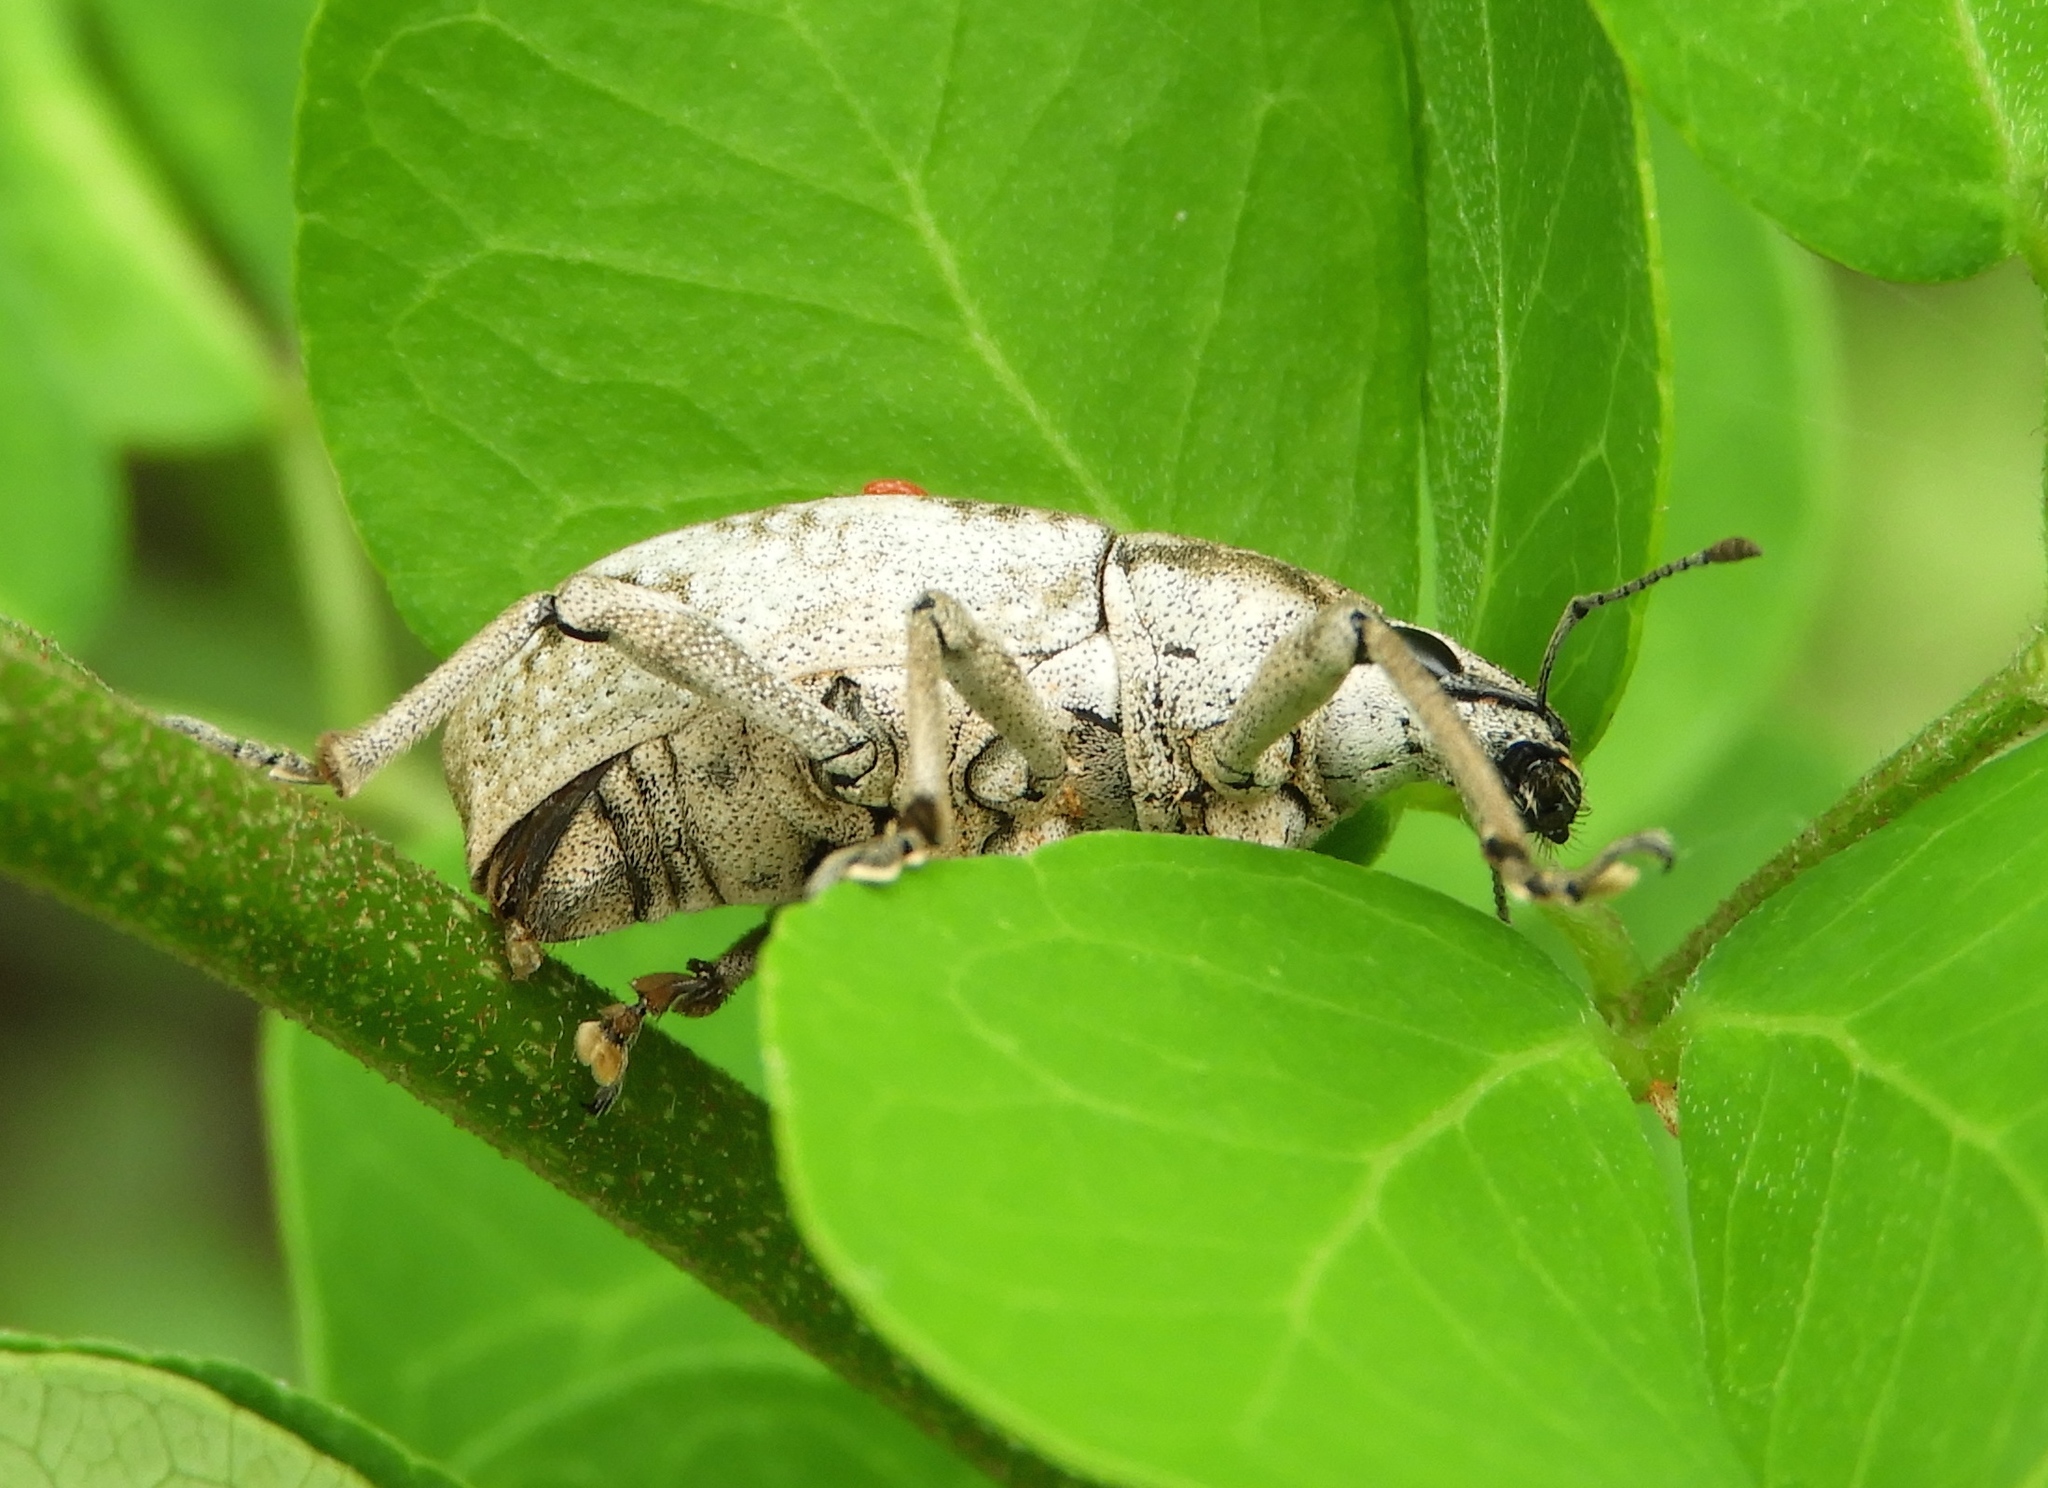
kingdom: Animalia
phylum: Arthropoda
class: Insecta
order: Coleoptera
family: Curculionidae
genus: Epicaerus
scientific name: Epicaerus
